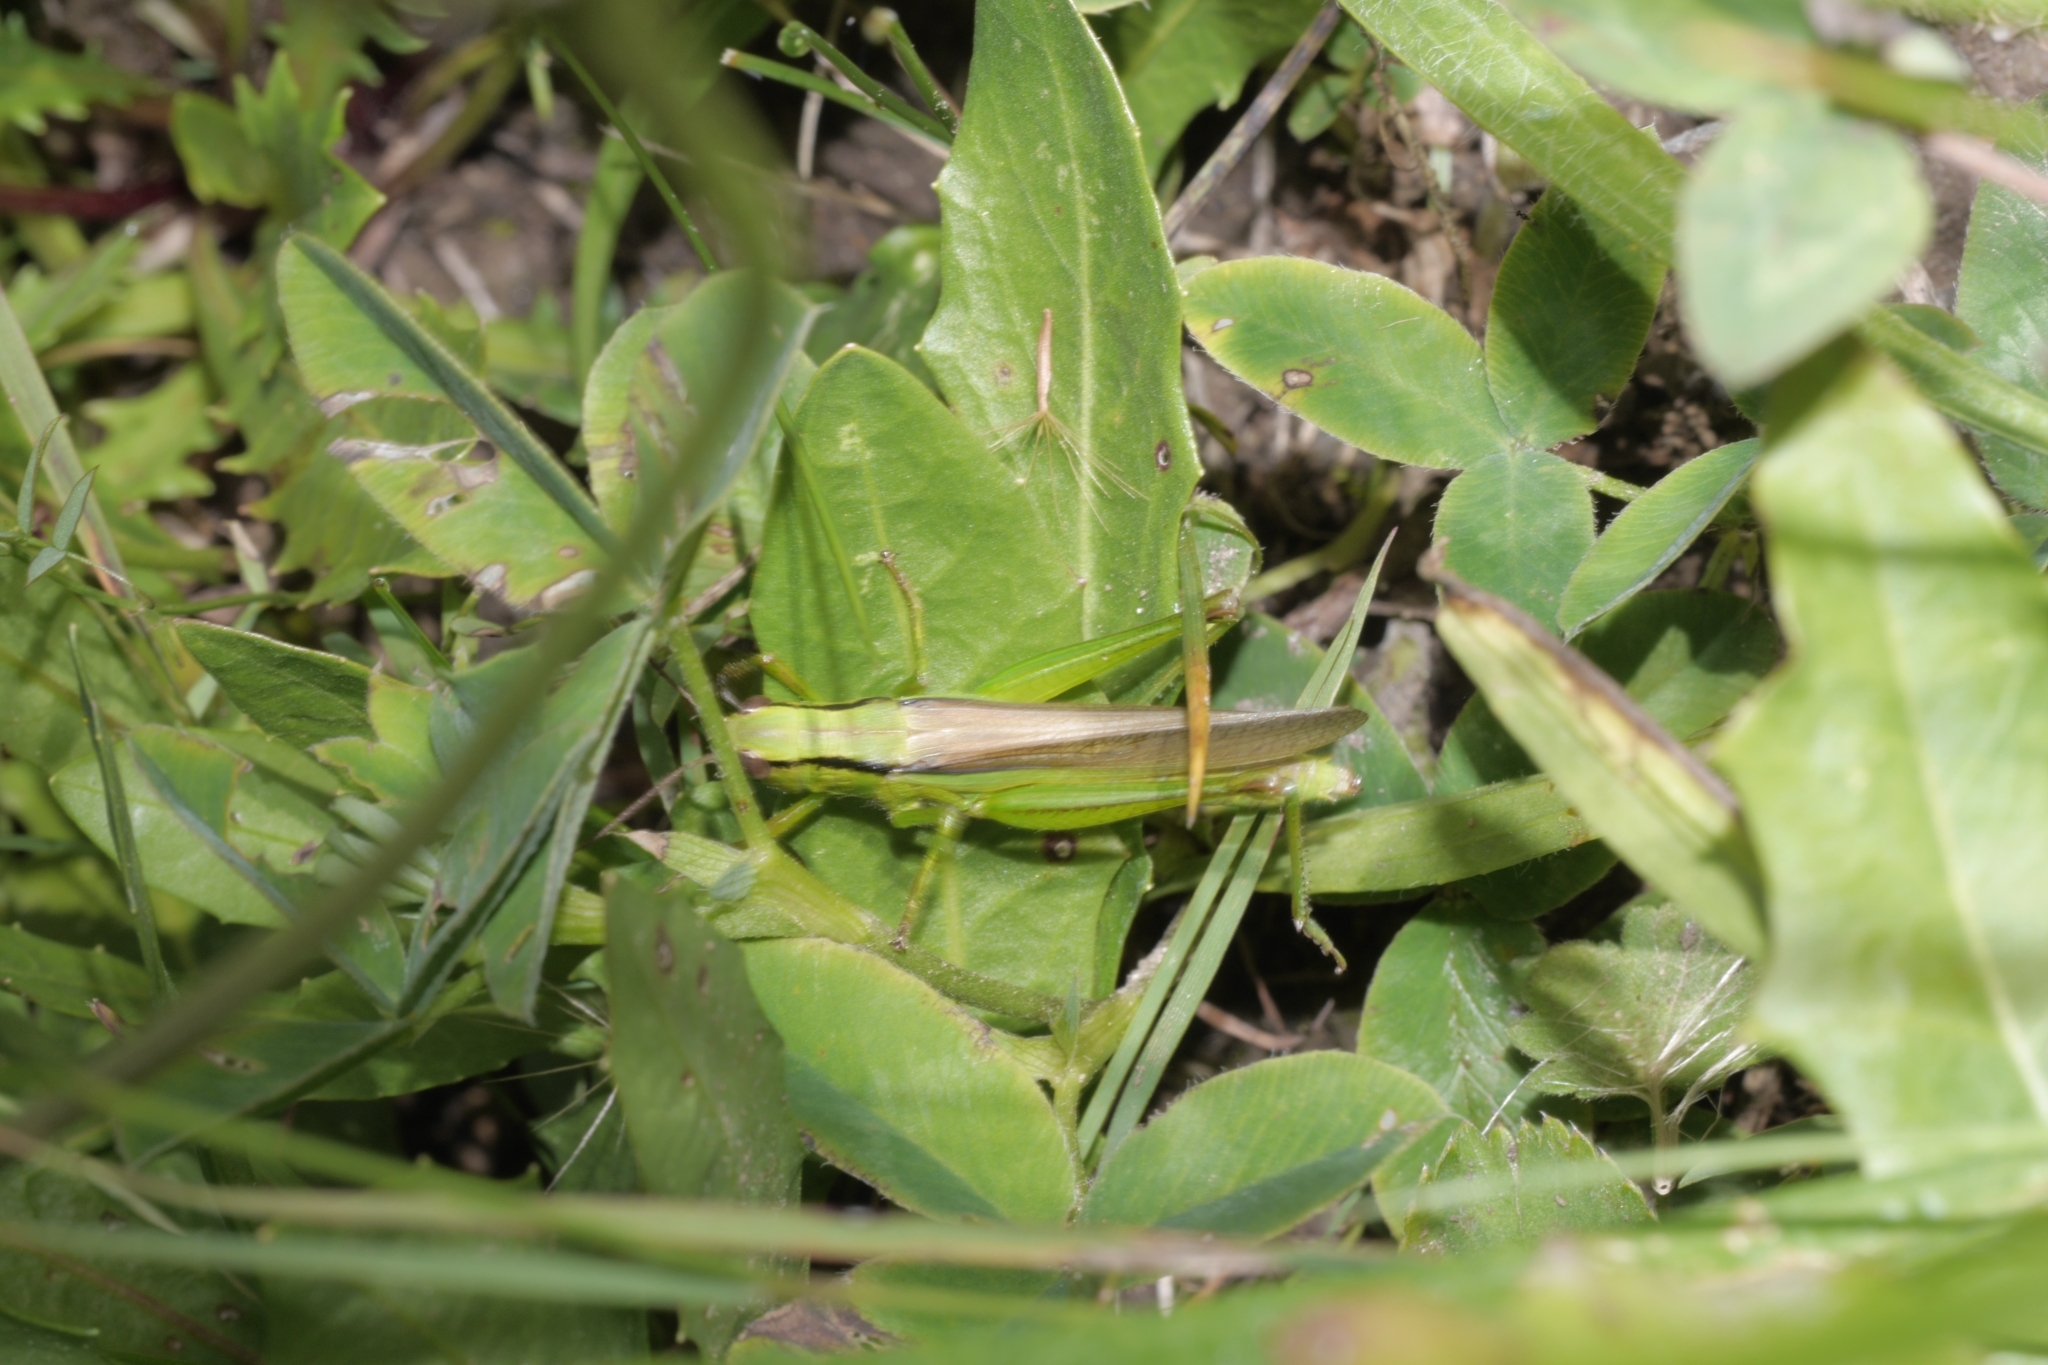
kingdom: Animalia
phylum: Arthropoda
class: Insecta
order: Orthoptera
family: Acrididae
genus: Mecostethus
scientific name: Mecostethus parapleurus
